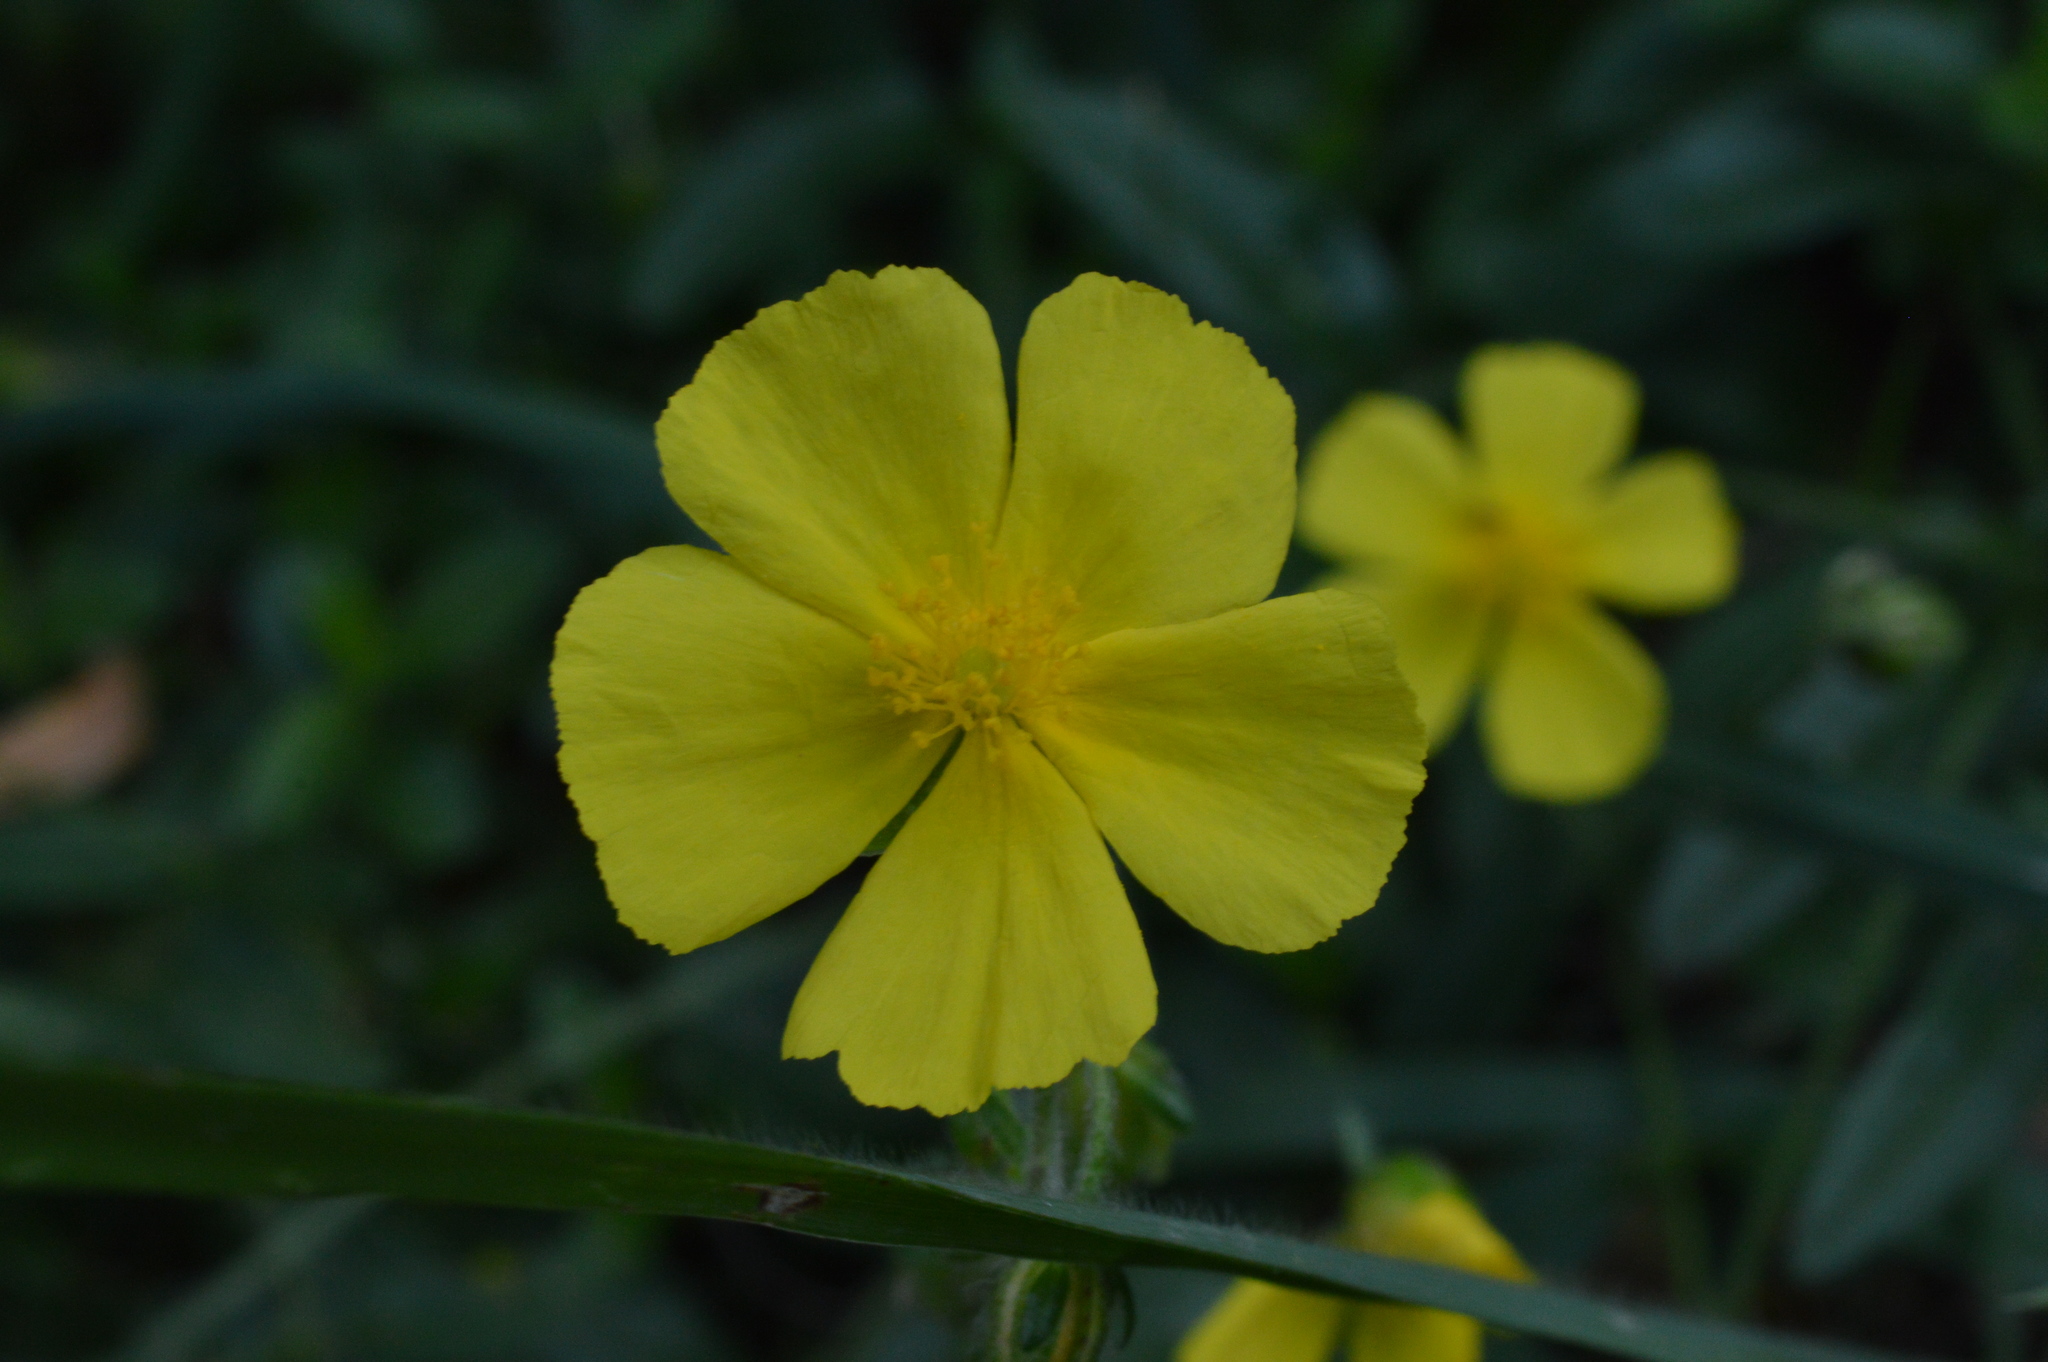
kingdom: Plantae
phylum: Tracheophyta
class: Magnoliopsida
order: Malvales
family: Cistaceae
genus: Helianthemum
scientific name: Helianthemum nummularium
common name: Common rock-rose
